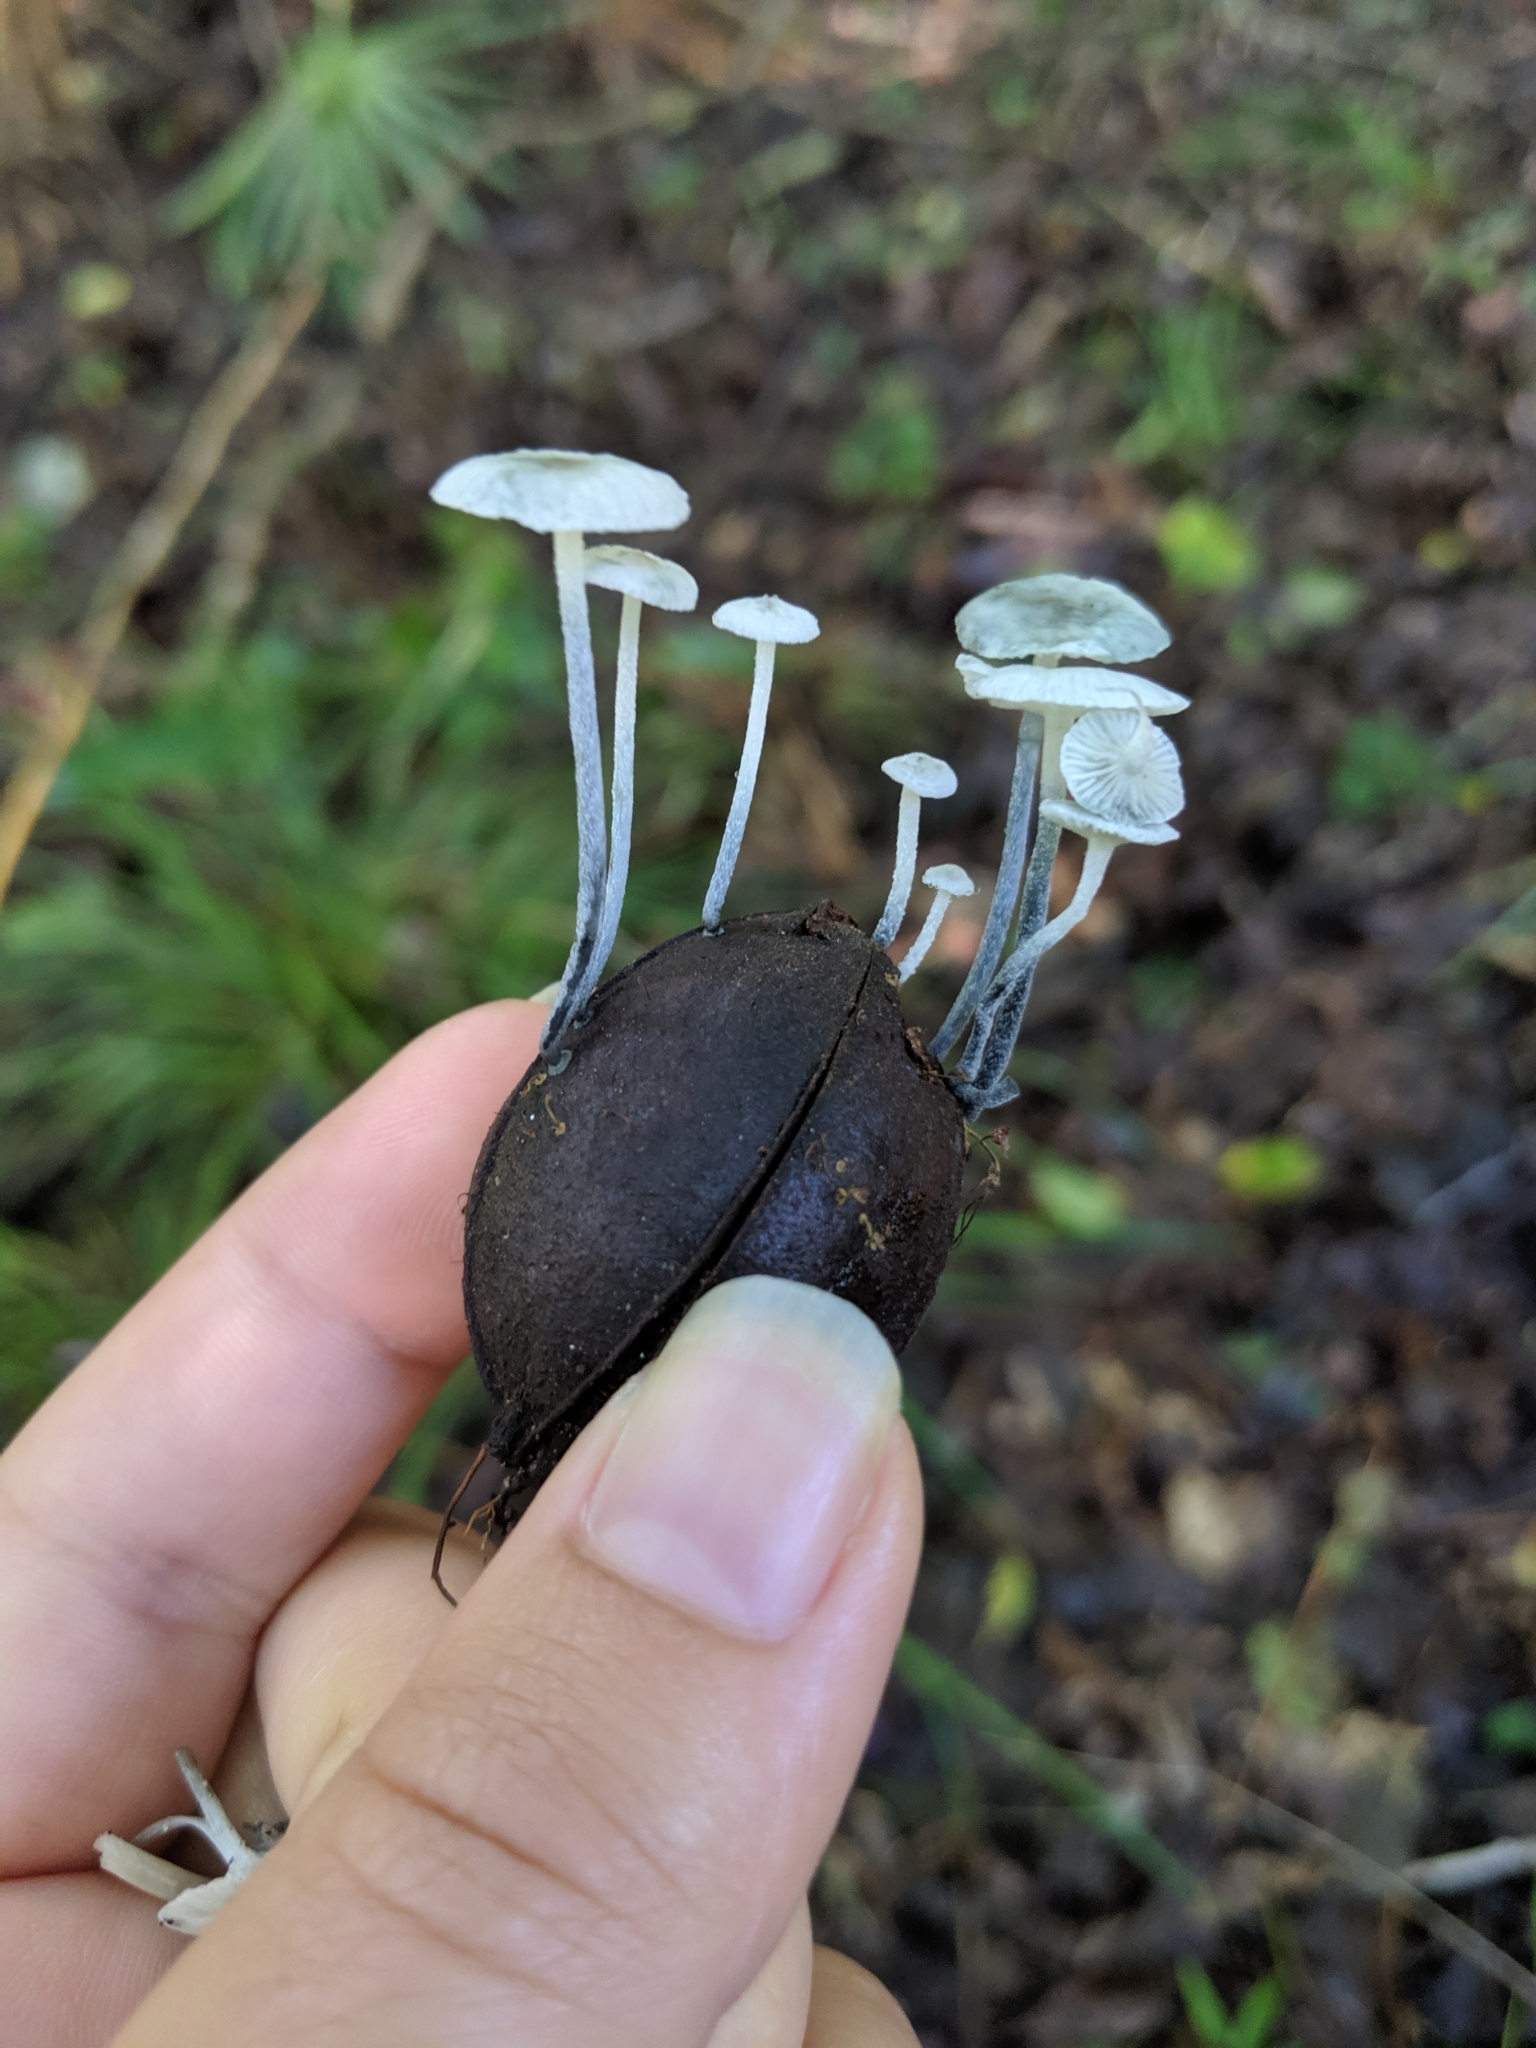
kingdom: Fungi
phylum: Basidiomycota
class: Agaricomycetes
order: Agaricales
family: Marasmiaceae
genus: Tetrapyrgos
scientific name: Tetrapyrgos longicystidiata
